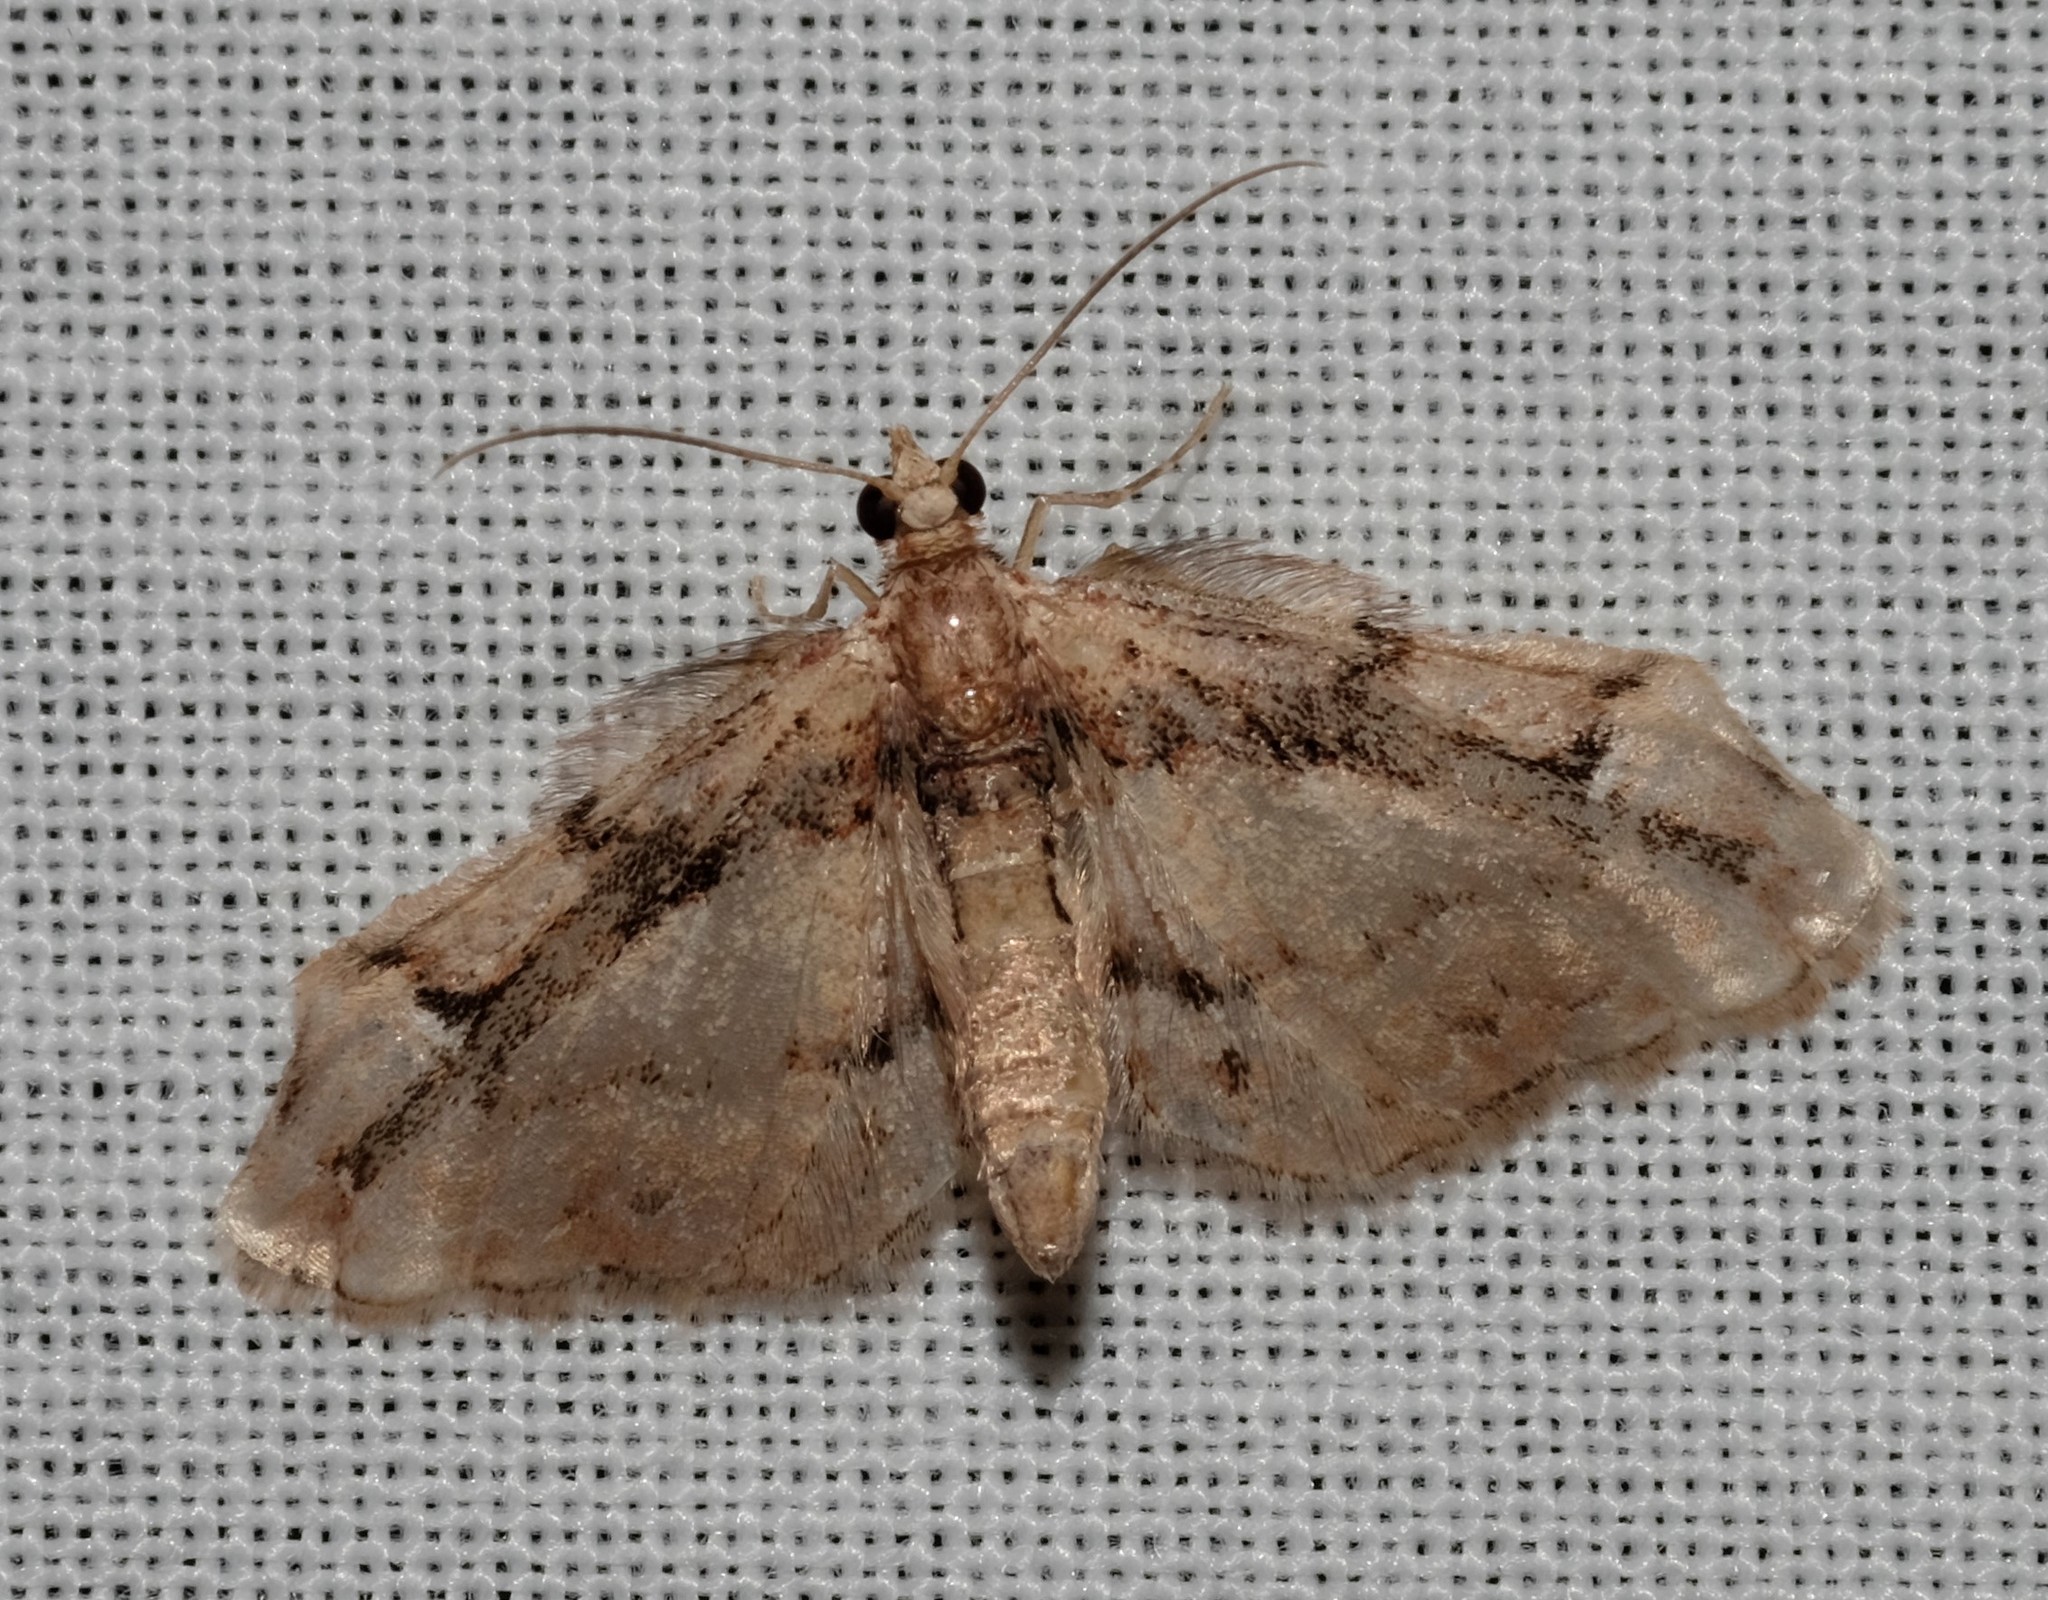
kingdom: Animalia
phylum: Arthropoda
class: Insecta
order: Lepidoptera
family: Geometridae
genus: Chloroclystis
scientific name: Chloroclystis approximata
